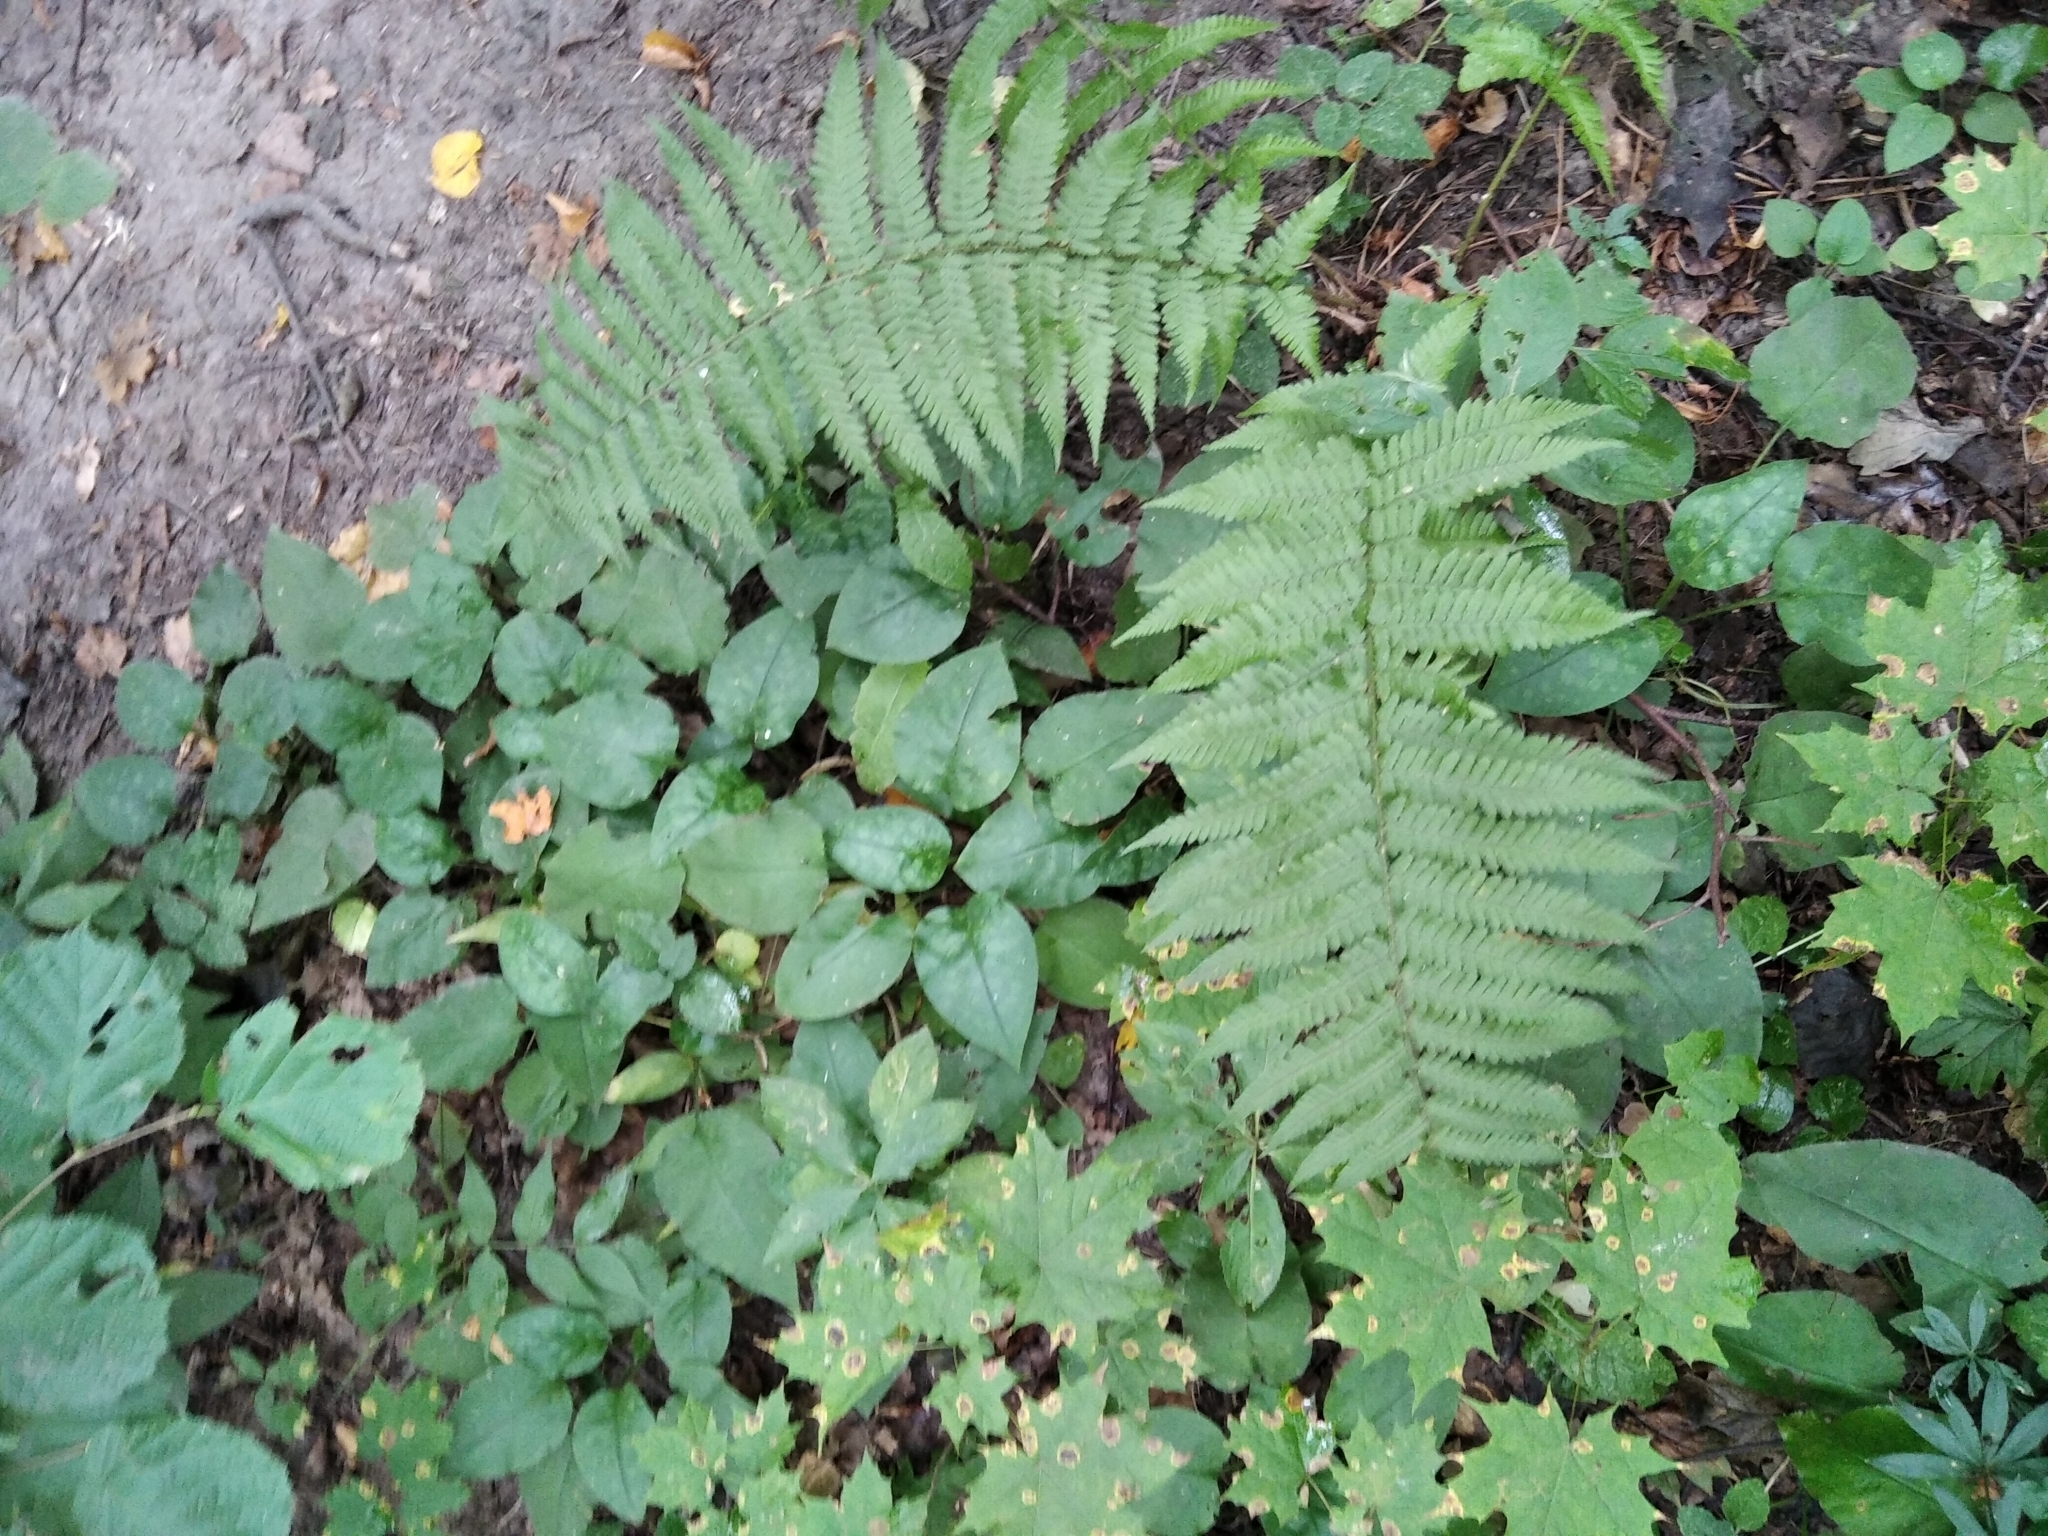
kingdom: Plantae
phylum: Tracheophyta
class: Polypodiopsida
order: Polypodiales
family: Dryopteridaceae
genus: Dryopteris
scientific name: Dryopteris filix-mas
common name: Male fern
